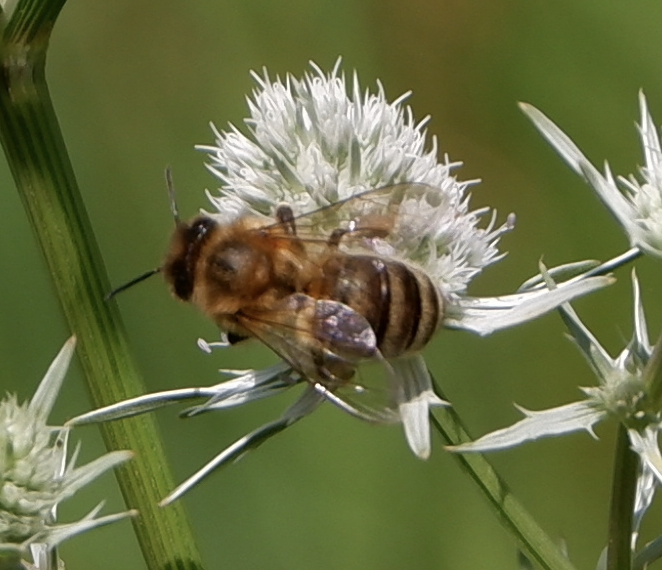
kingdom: Animalia
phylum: Arthropoda
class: Insecta
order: Hymenoptera
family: Apidae
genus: Apis
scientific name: Apis mellifera
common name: Honey bee
